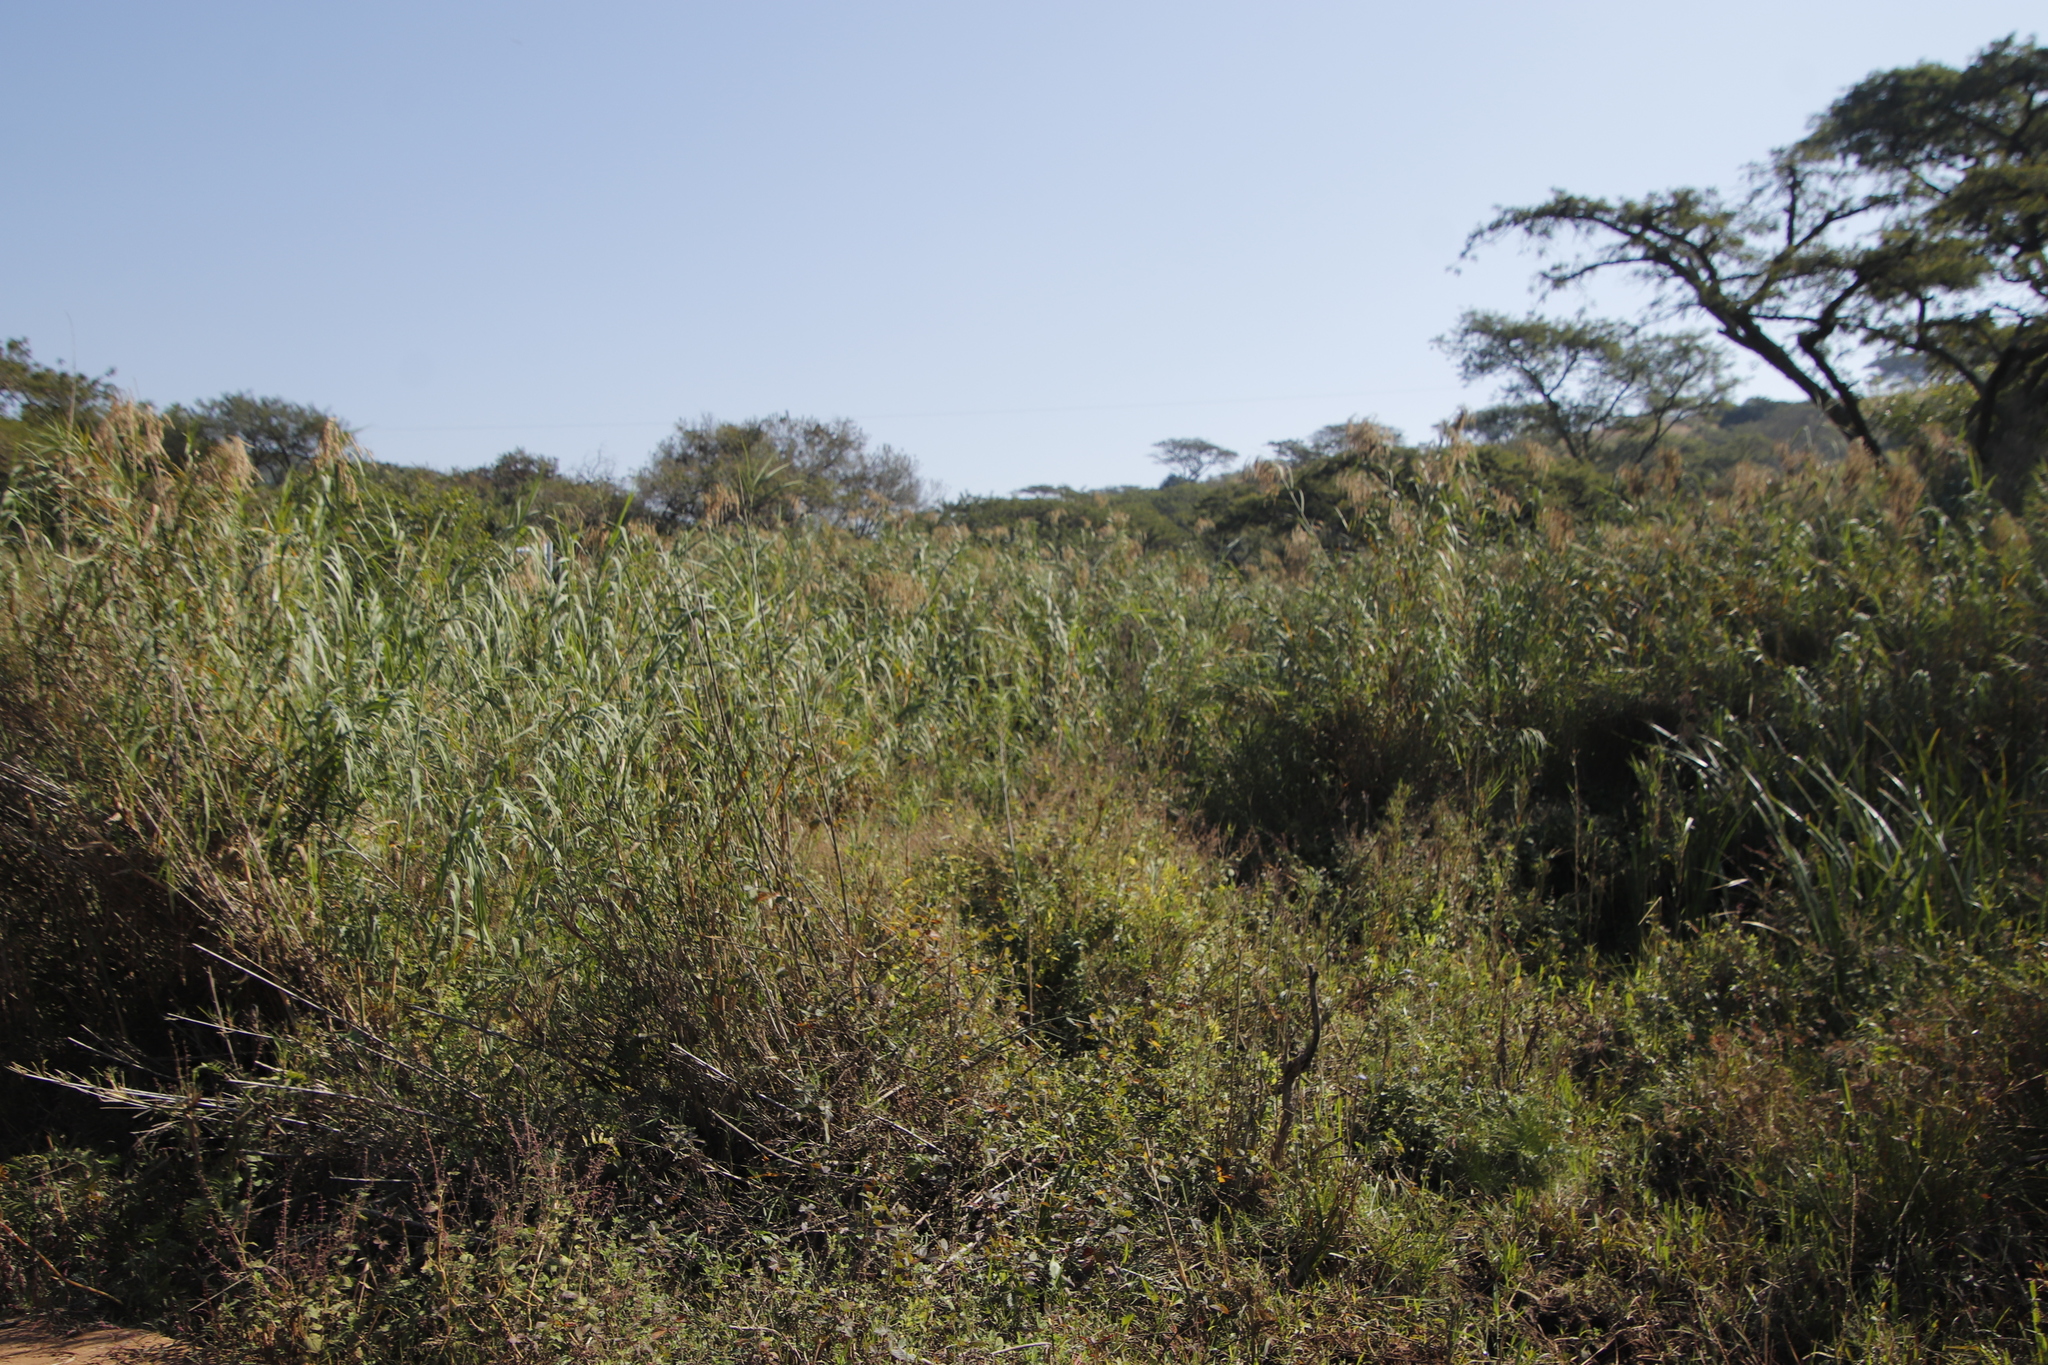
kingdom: Plantae
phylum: Tracheophyta
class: Liliopsida
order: Poales
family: Poaceae
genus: Phragmites
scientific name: Phragmites australis
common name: Common reed
